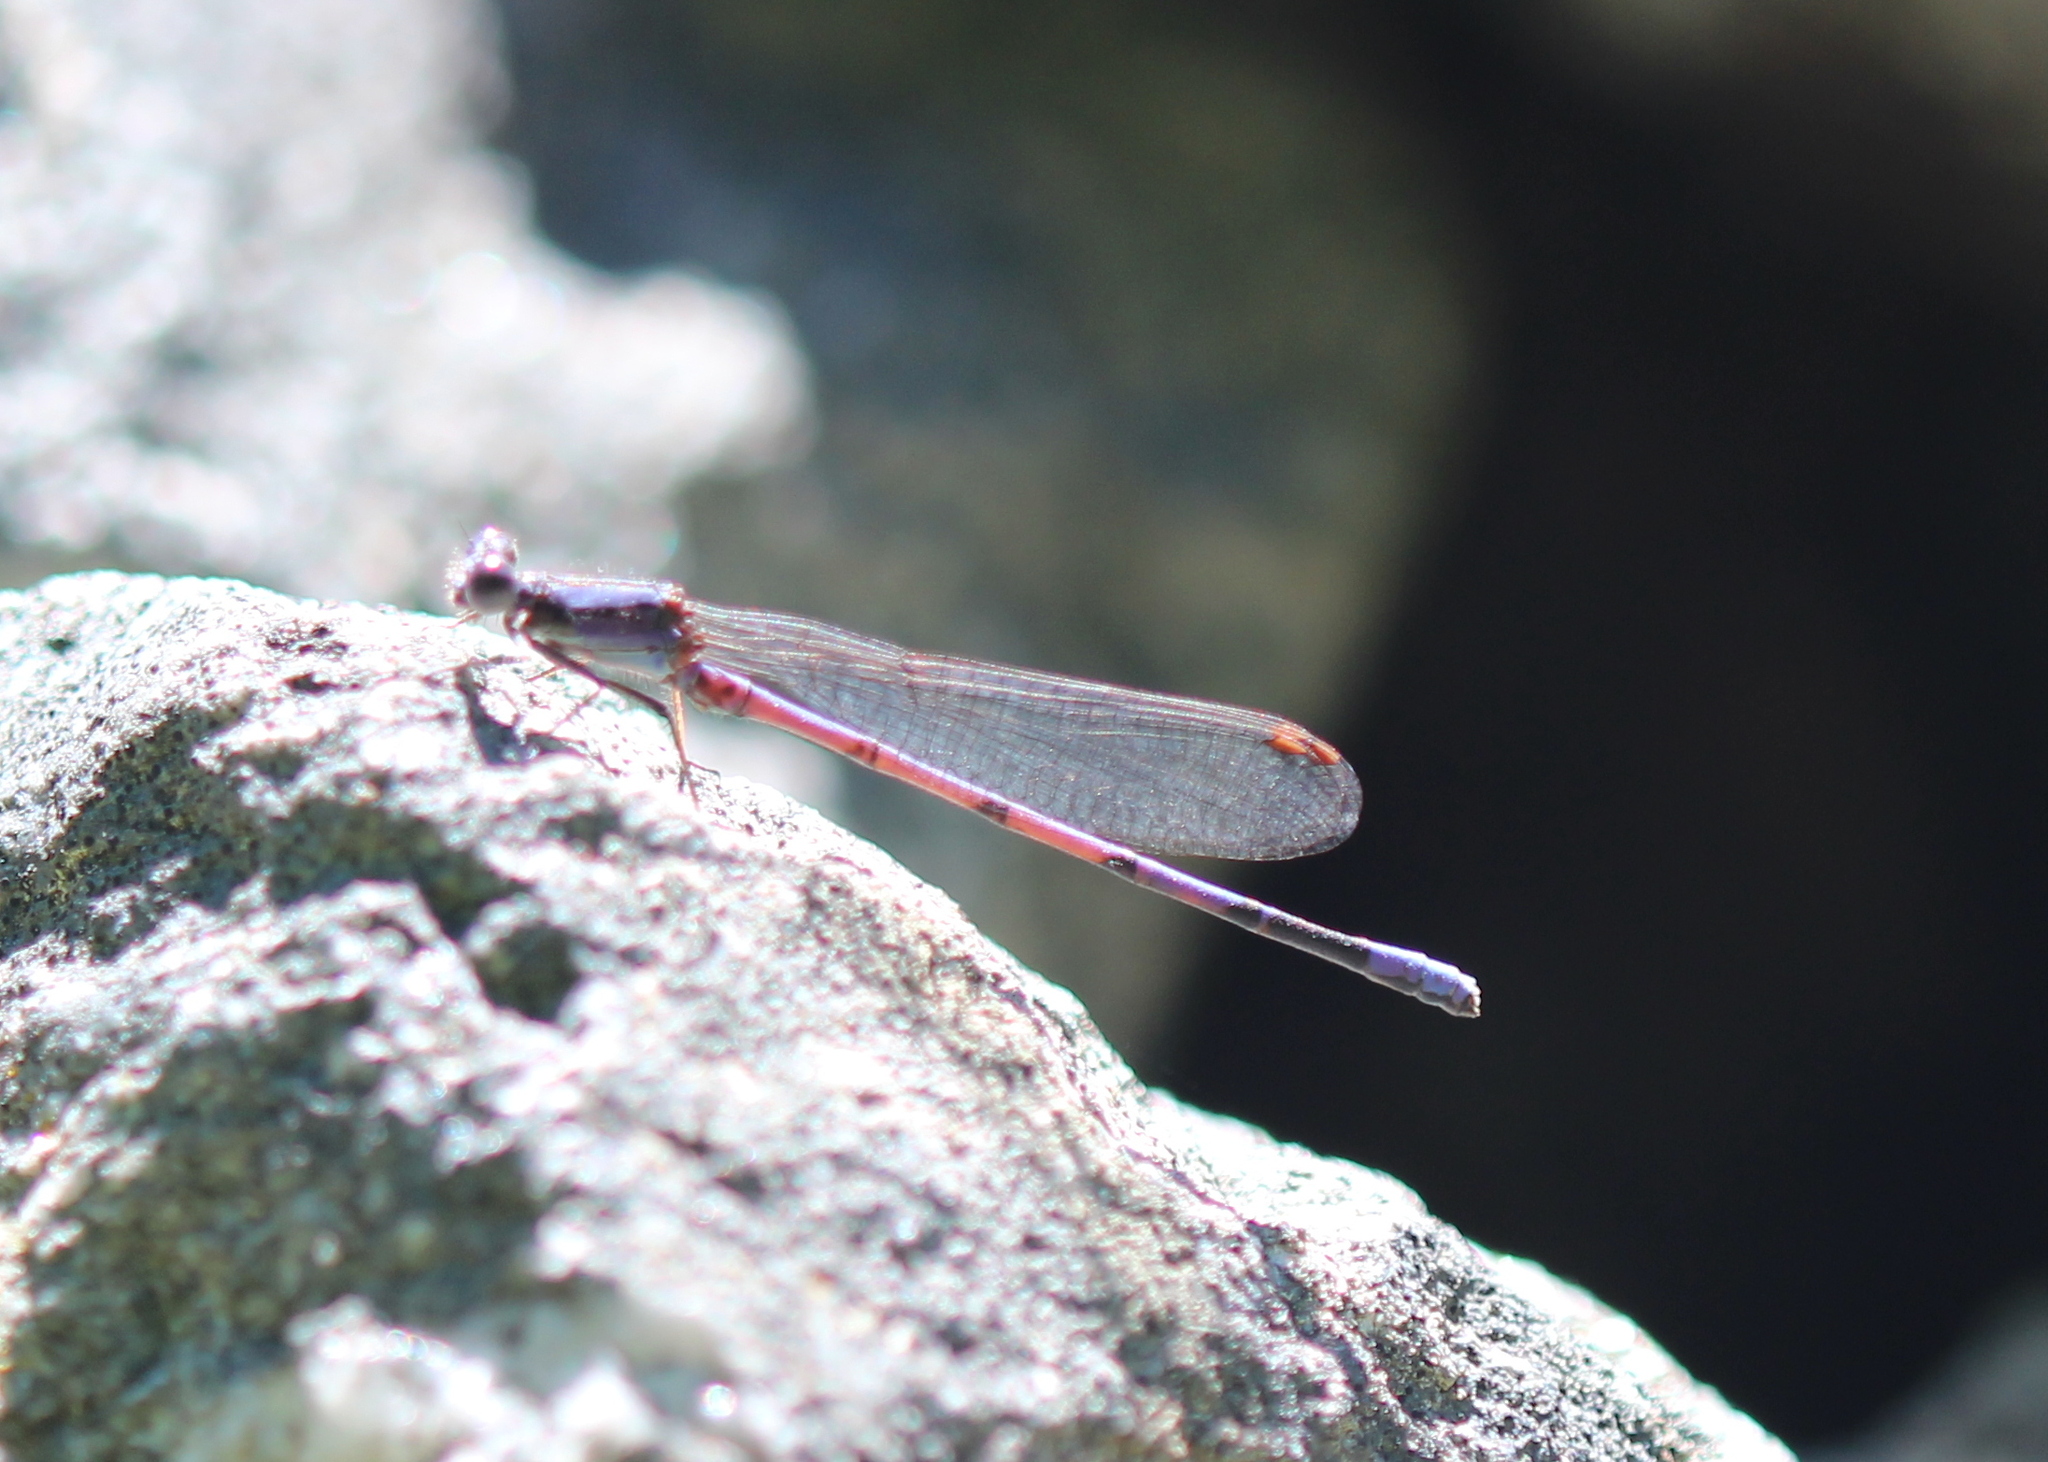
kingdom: Animalia
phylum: Arthropoda
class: Insecta
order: Odonata
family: Coenagrionidae
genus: Argia
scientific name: Argia fumipennis
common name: Variable dancer
